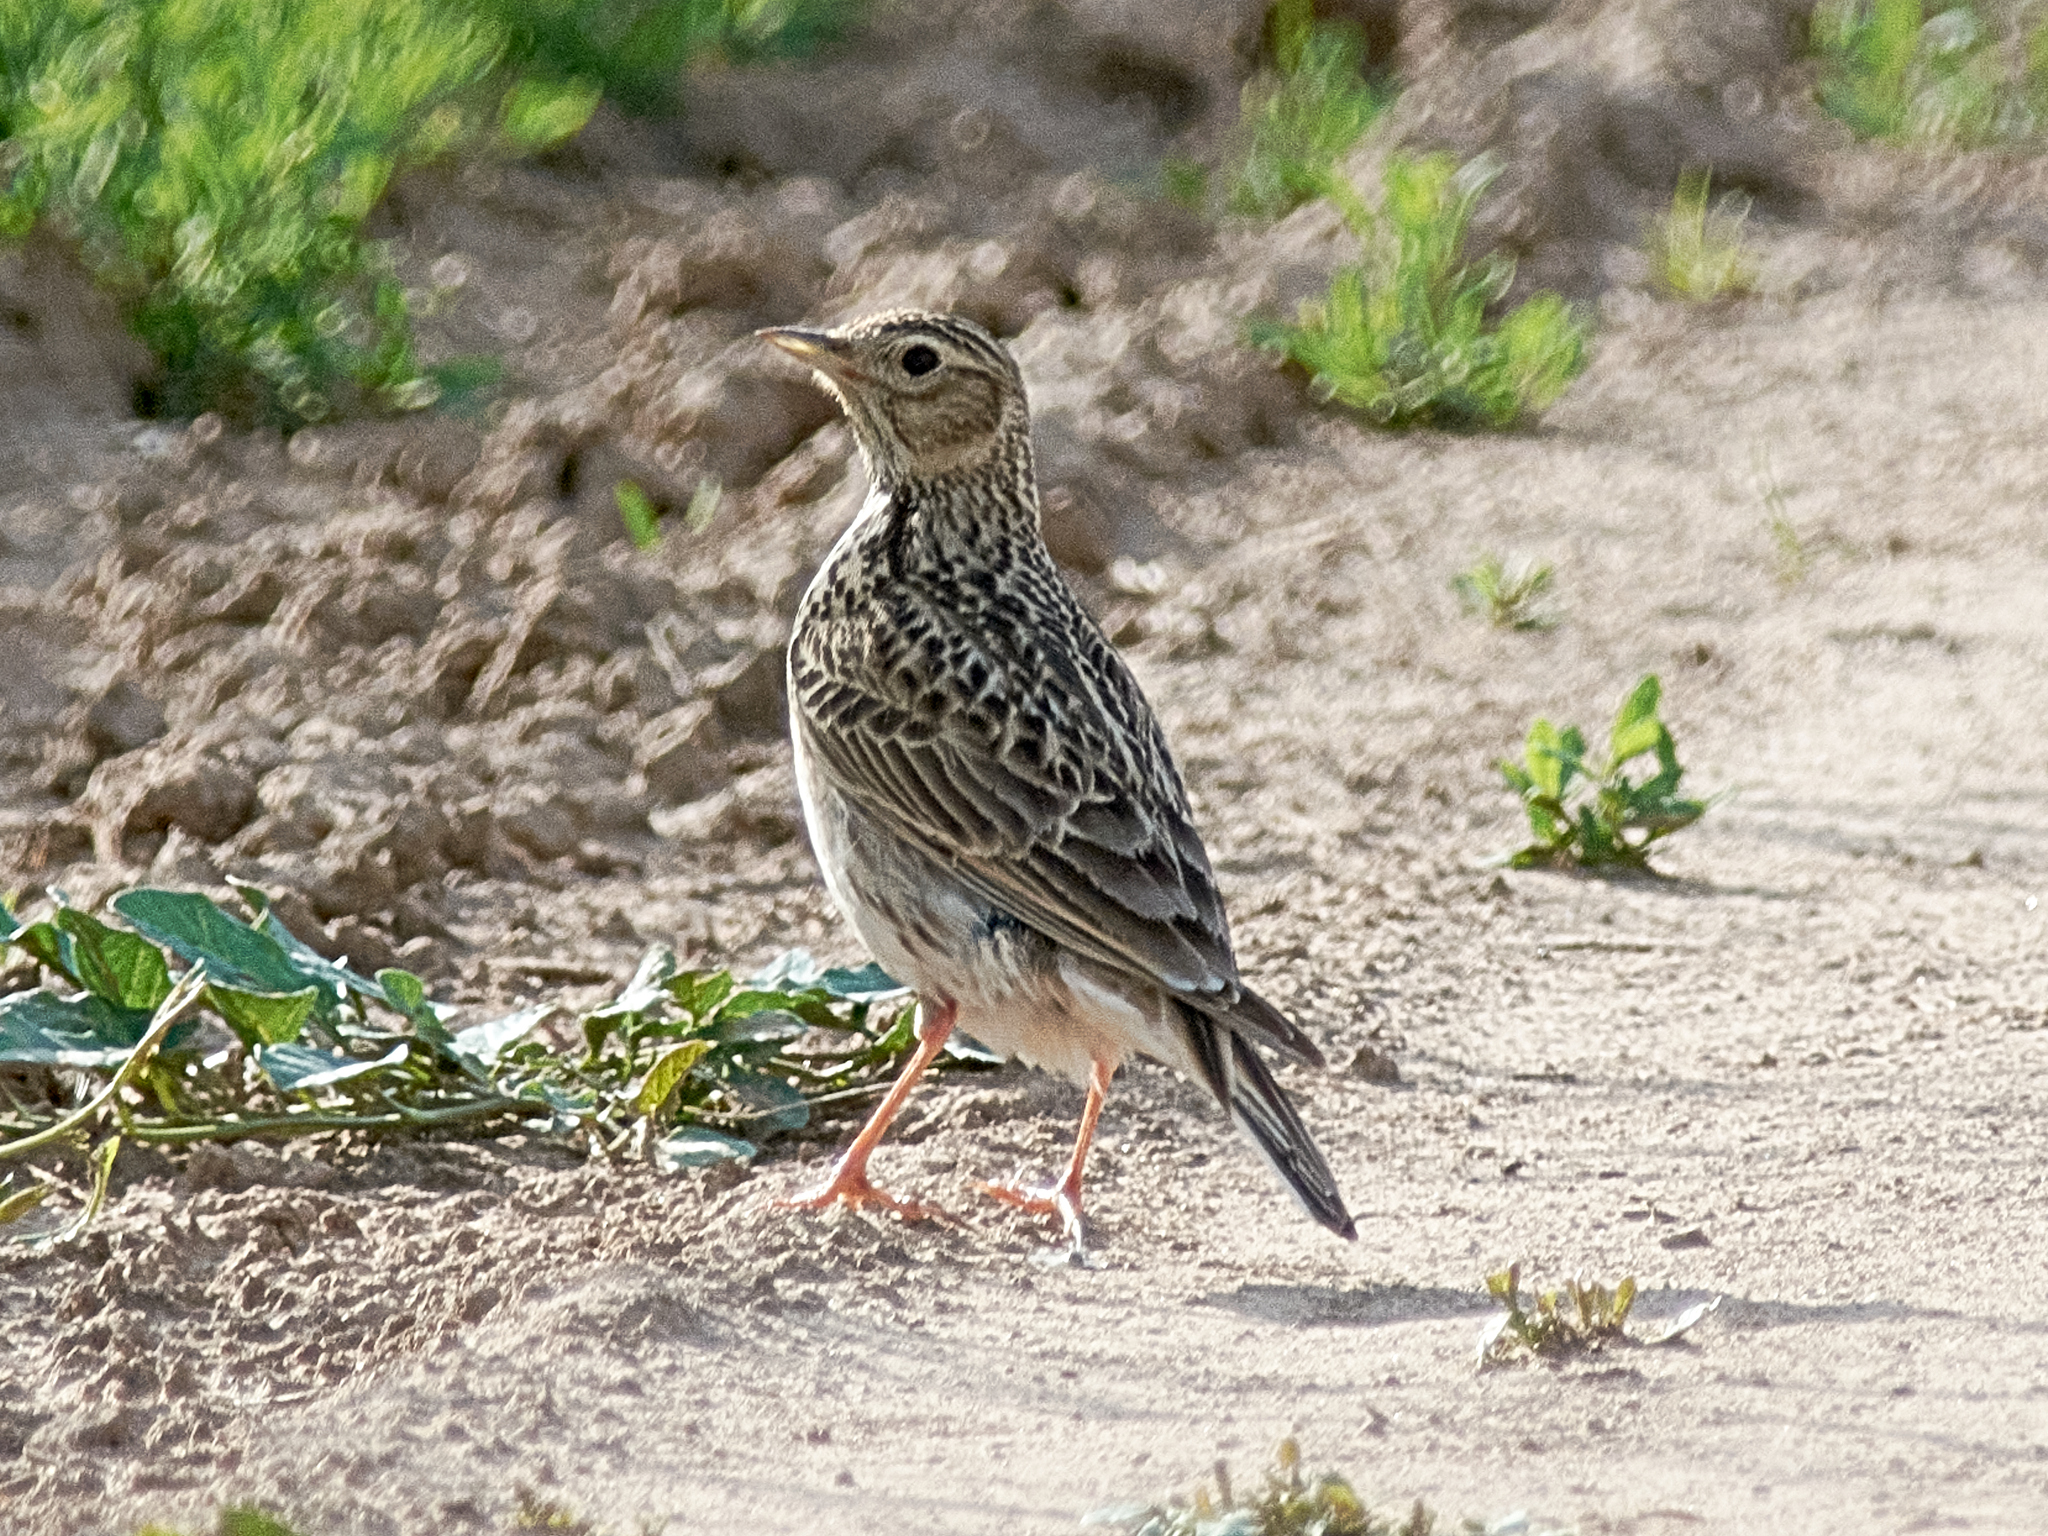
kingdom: Animalia
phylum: Chordata
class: Aves
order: Passeriformes
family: Alaudidae
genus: Alauda
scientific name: Alauda arvensis
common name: Eurasian skylark
